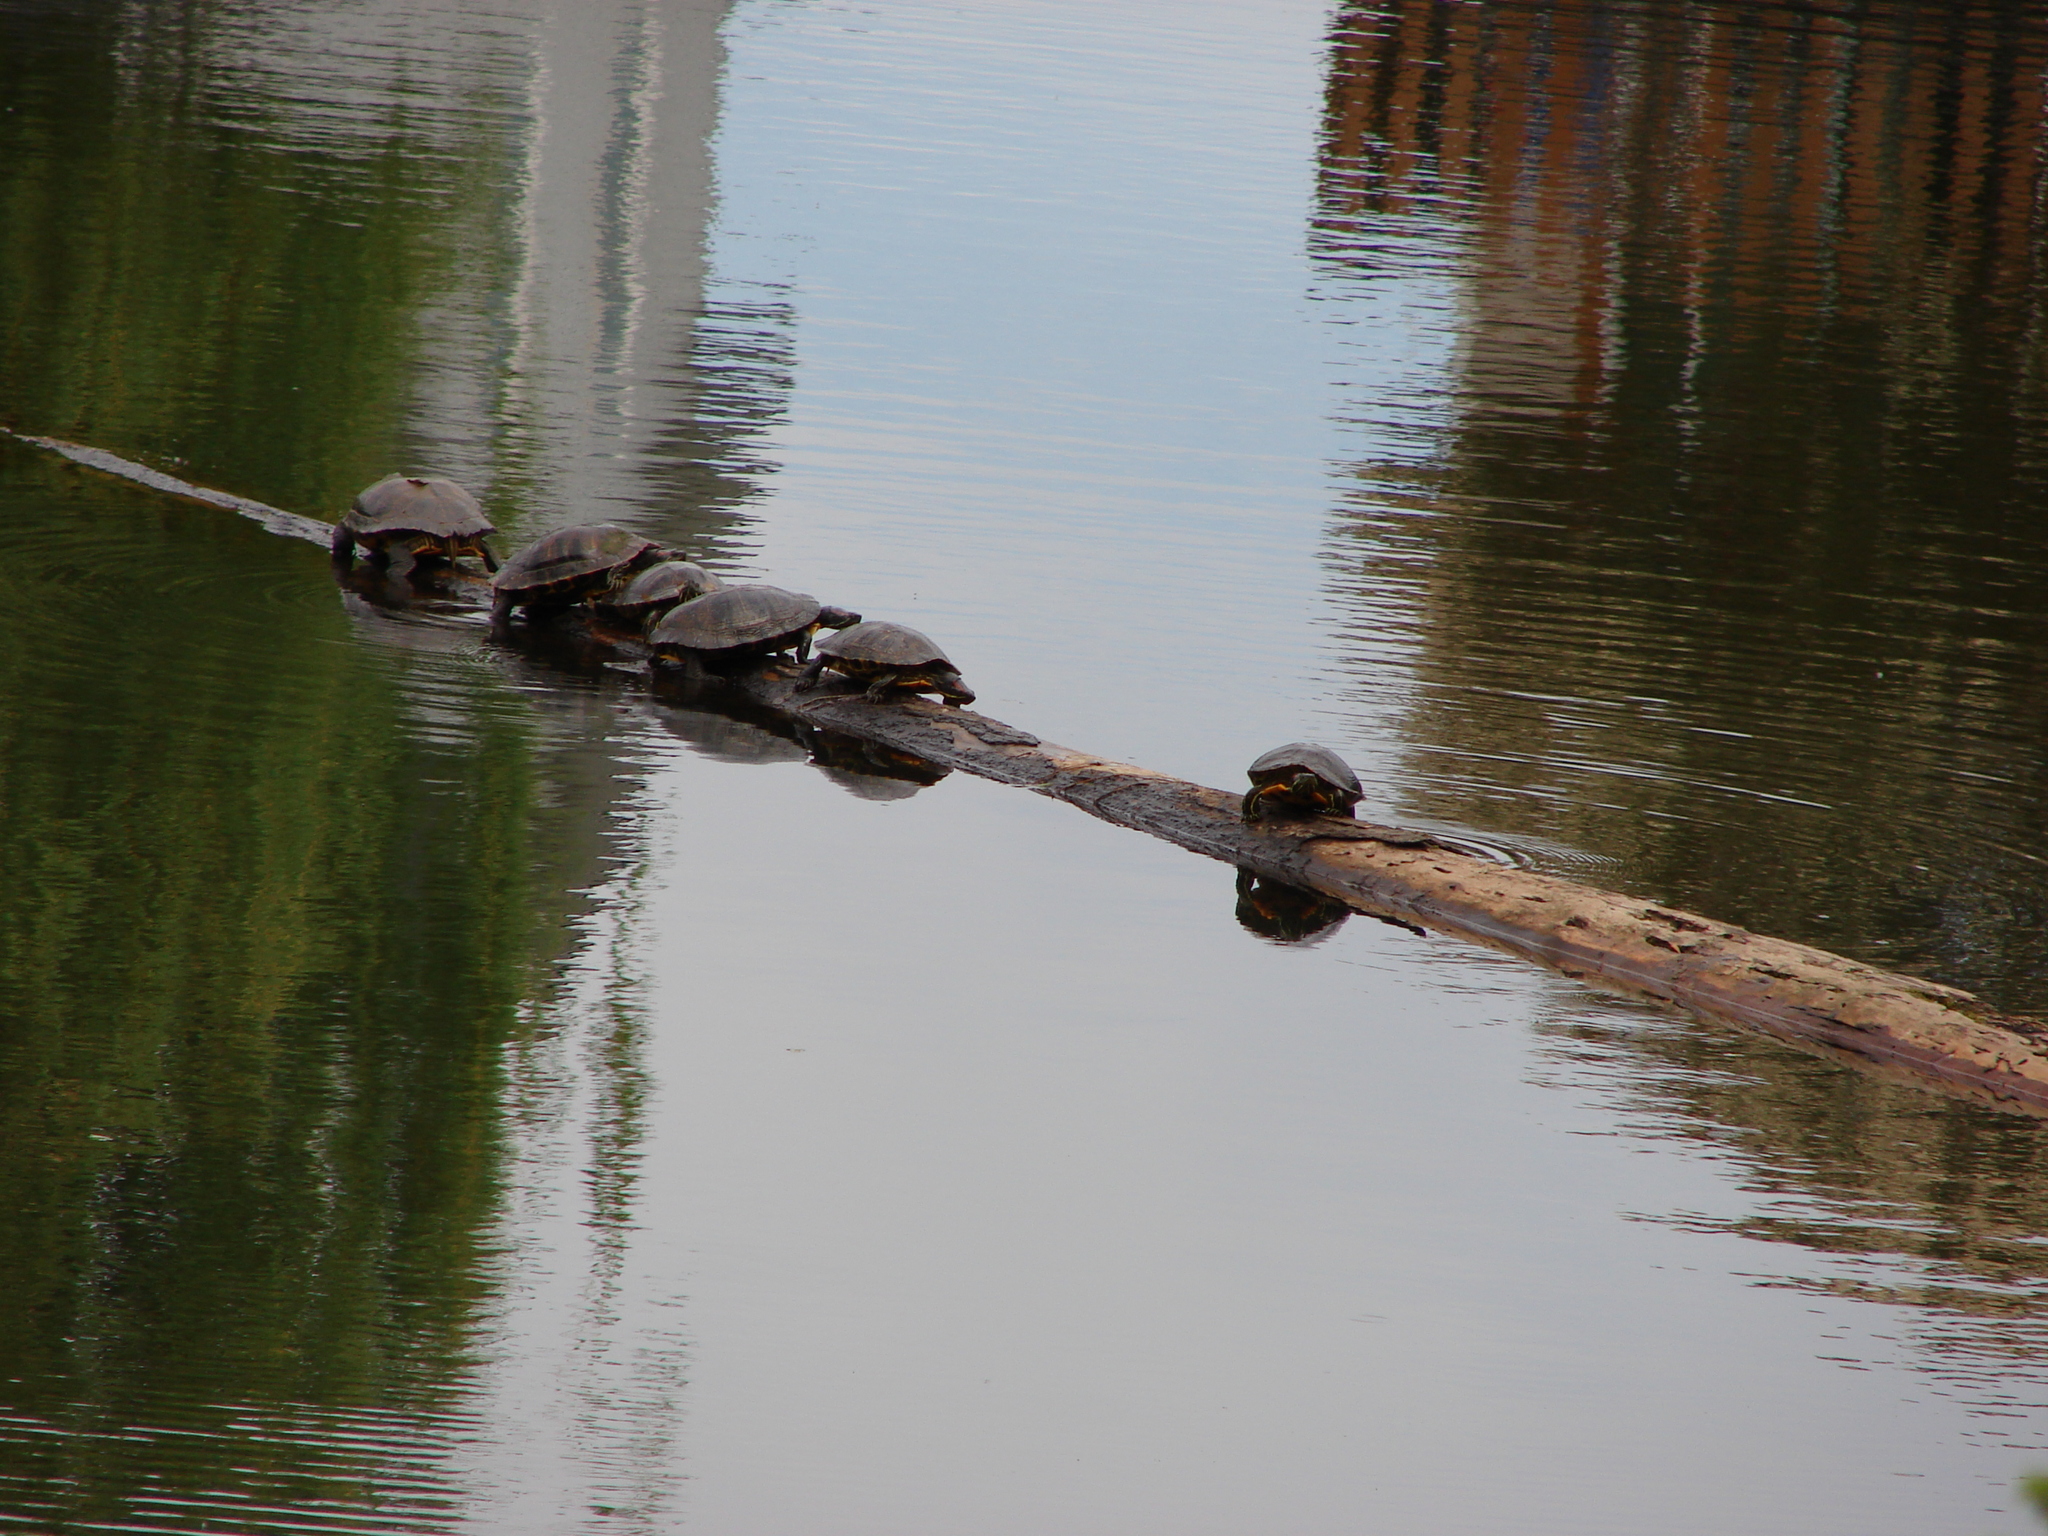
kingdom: Animalia
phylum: Chordata
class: Testudines
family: Emydidae
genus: Chrysemys
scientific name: Chrysemys picta
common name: Painted turtle
